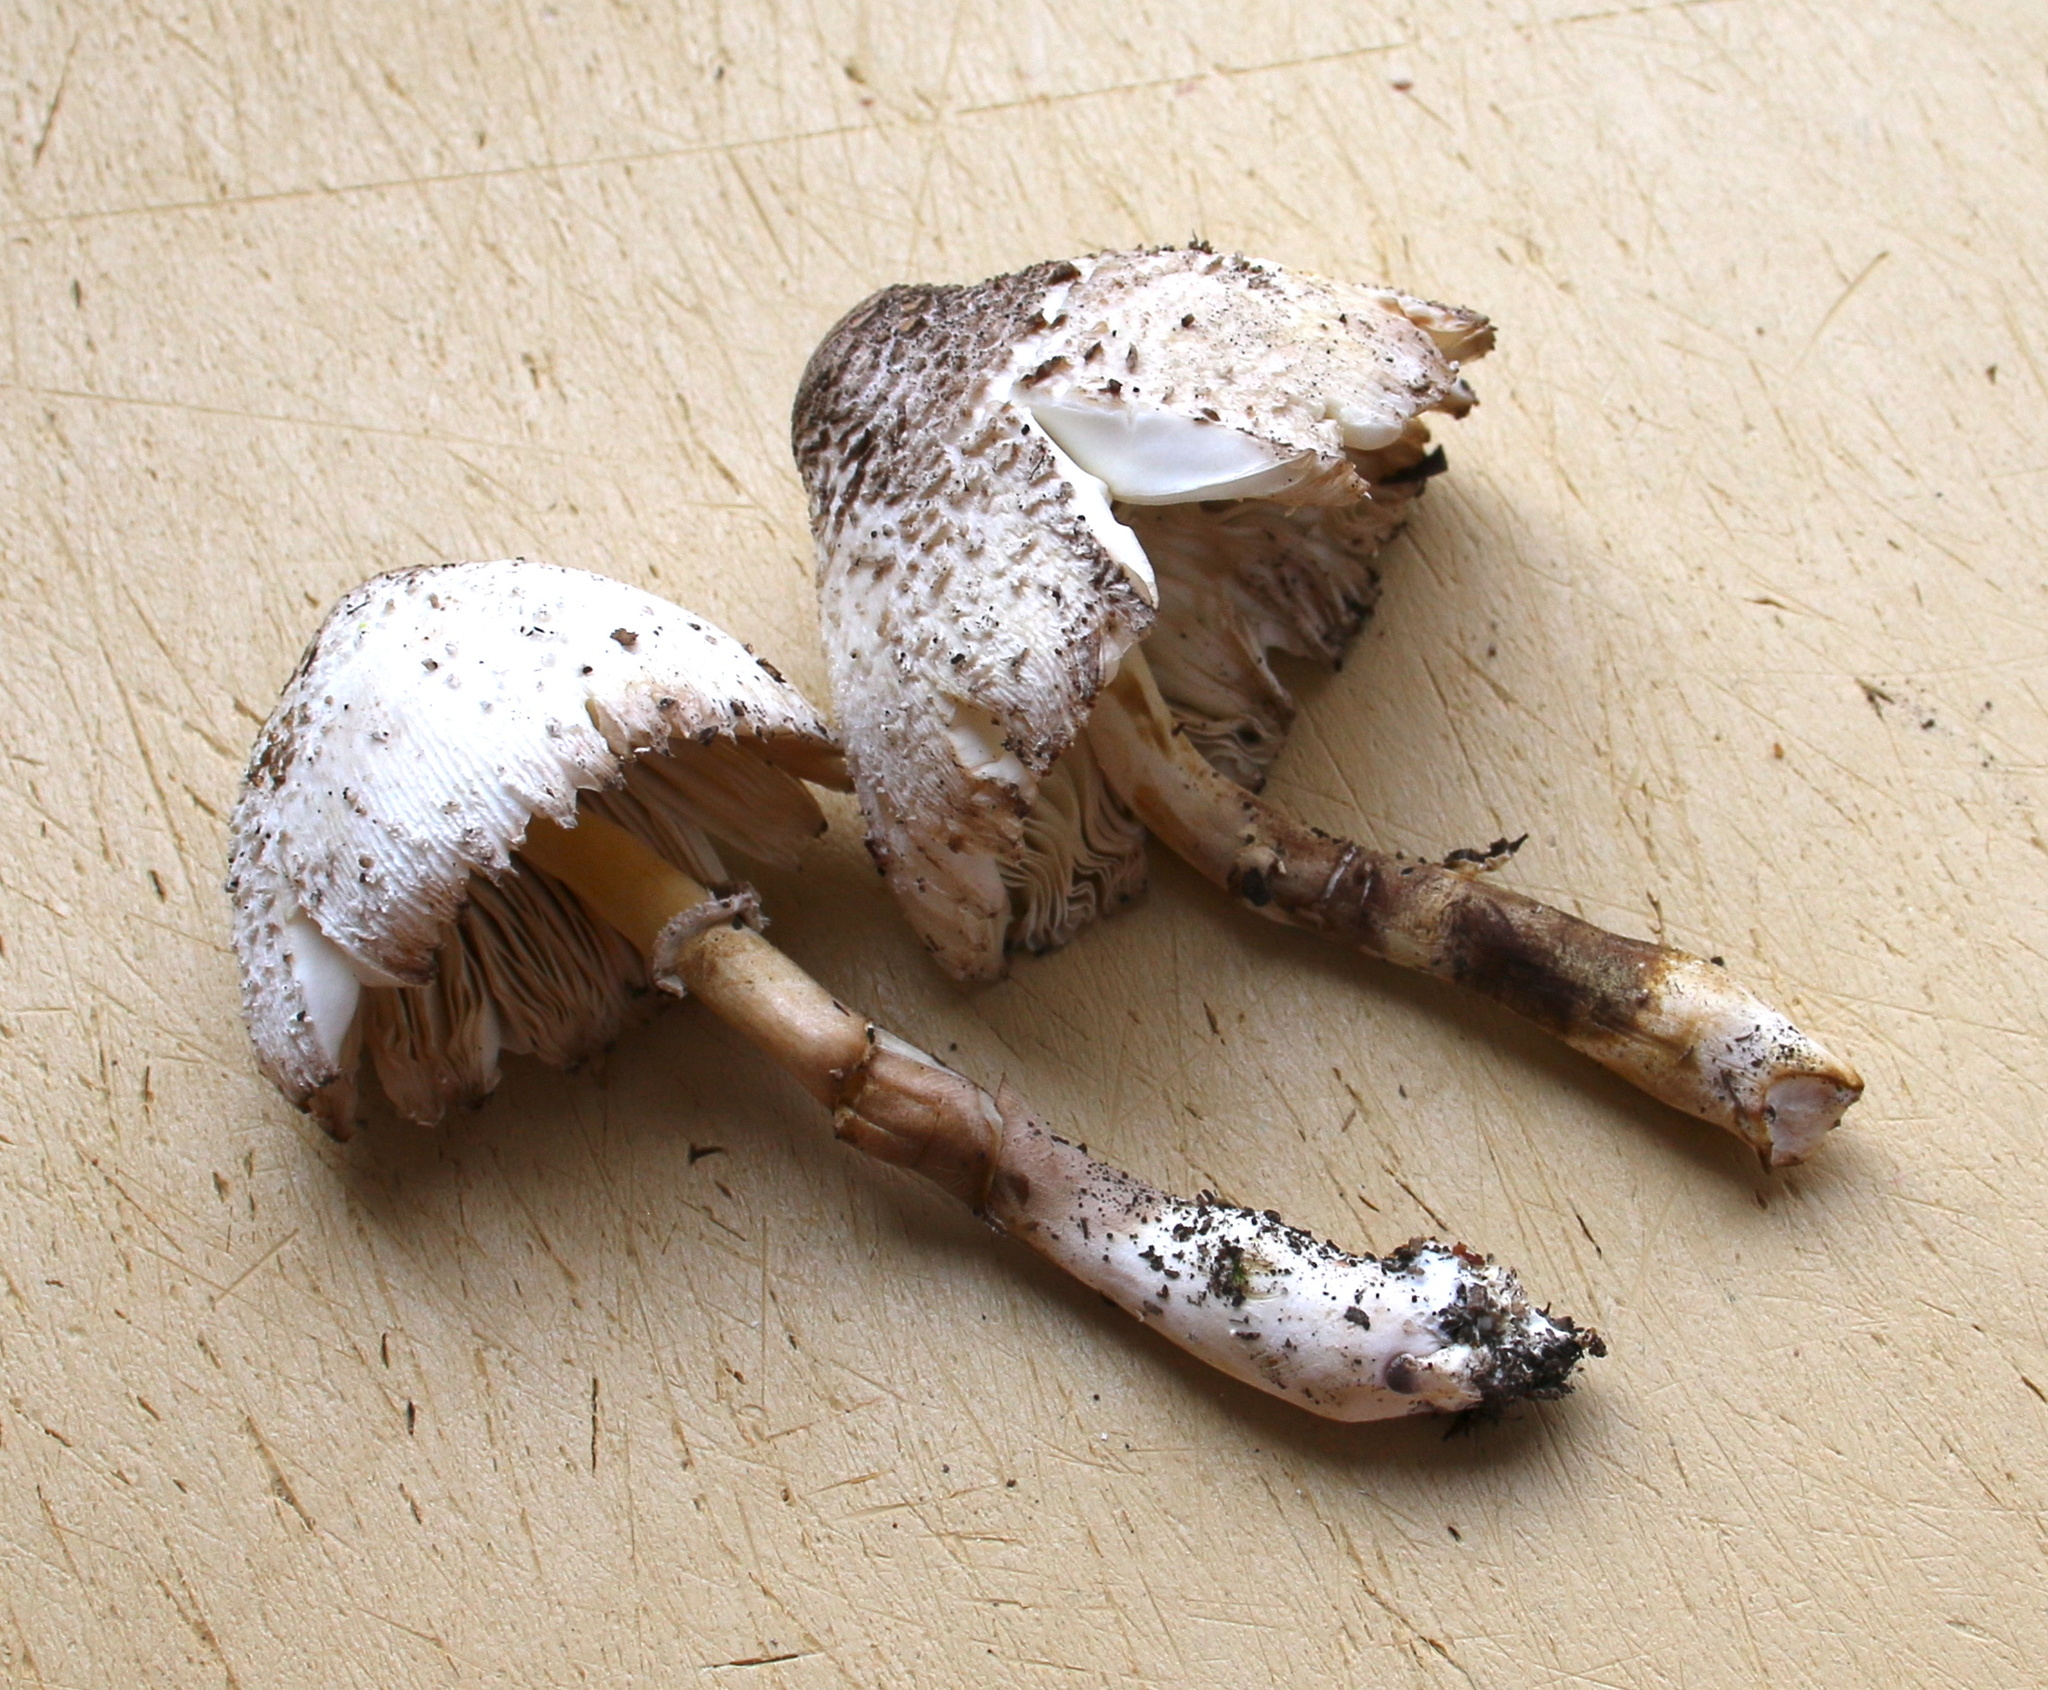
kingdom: Fungi
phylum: Basidiomycota
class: Agaricomycetes
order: Agaricales
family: Agaricaceae
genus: Leucoagaricus
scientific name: Leucoagaricus meleagris
